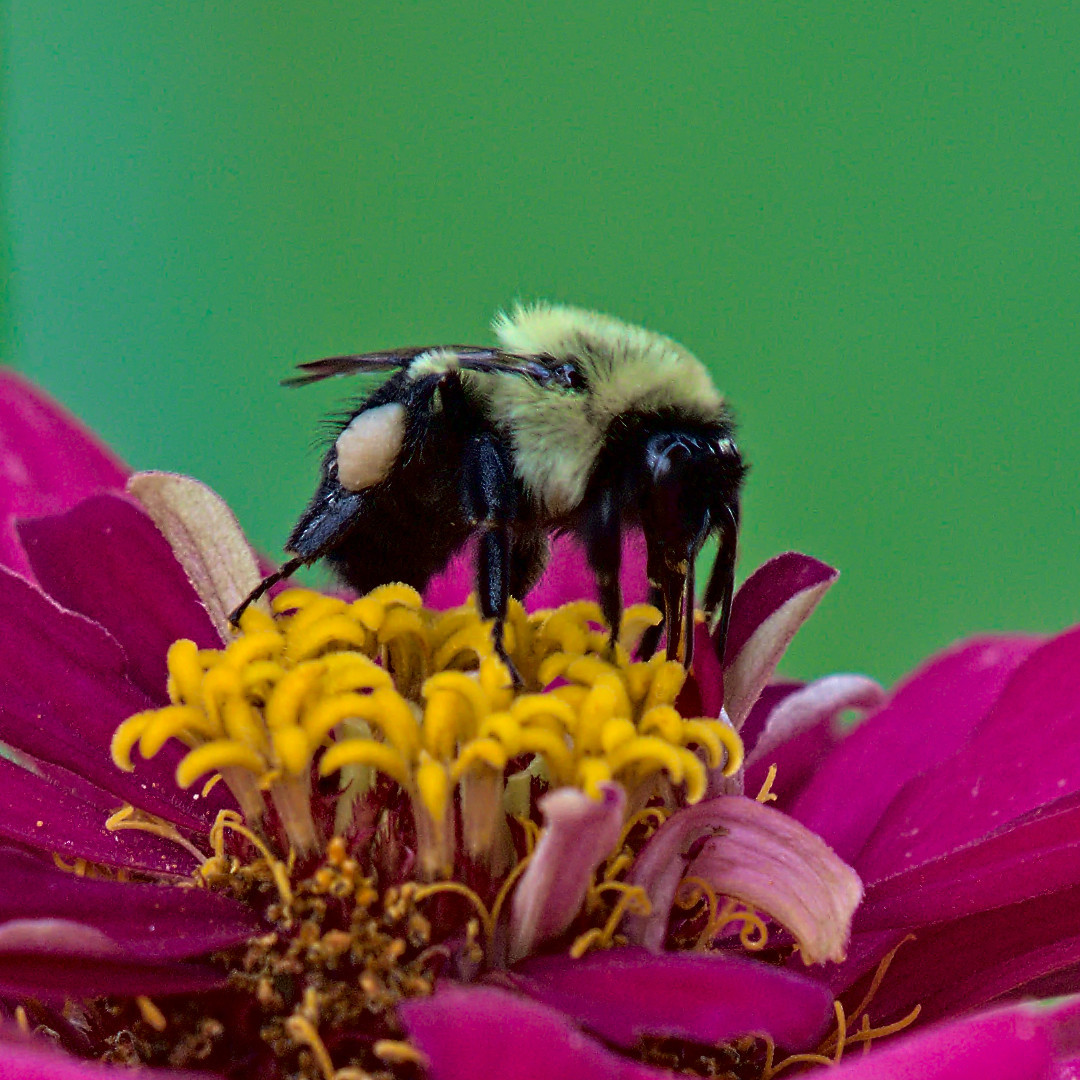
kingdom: Animalia
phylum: Arthropoda
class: Insecta
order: Hymenoptera
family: Apidae
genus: Bombus
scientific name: Bombus impatiens
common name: Common eastern bumble bee
